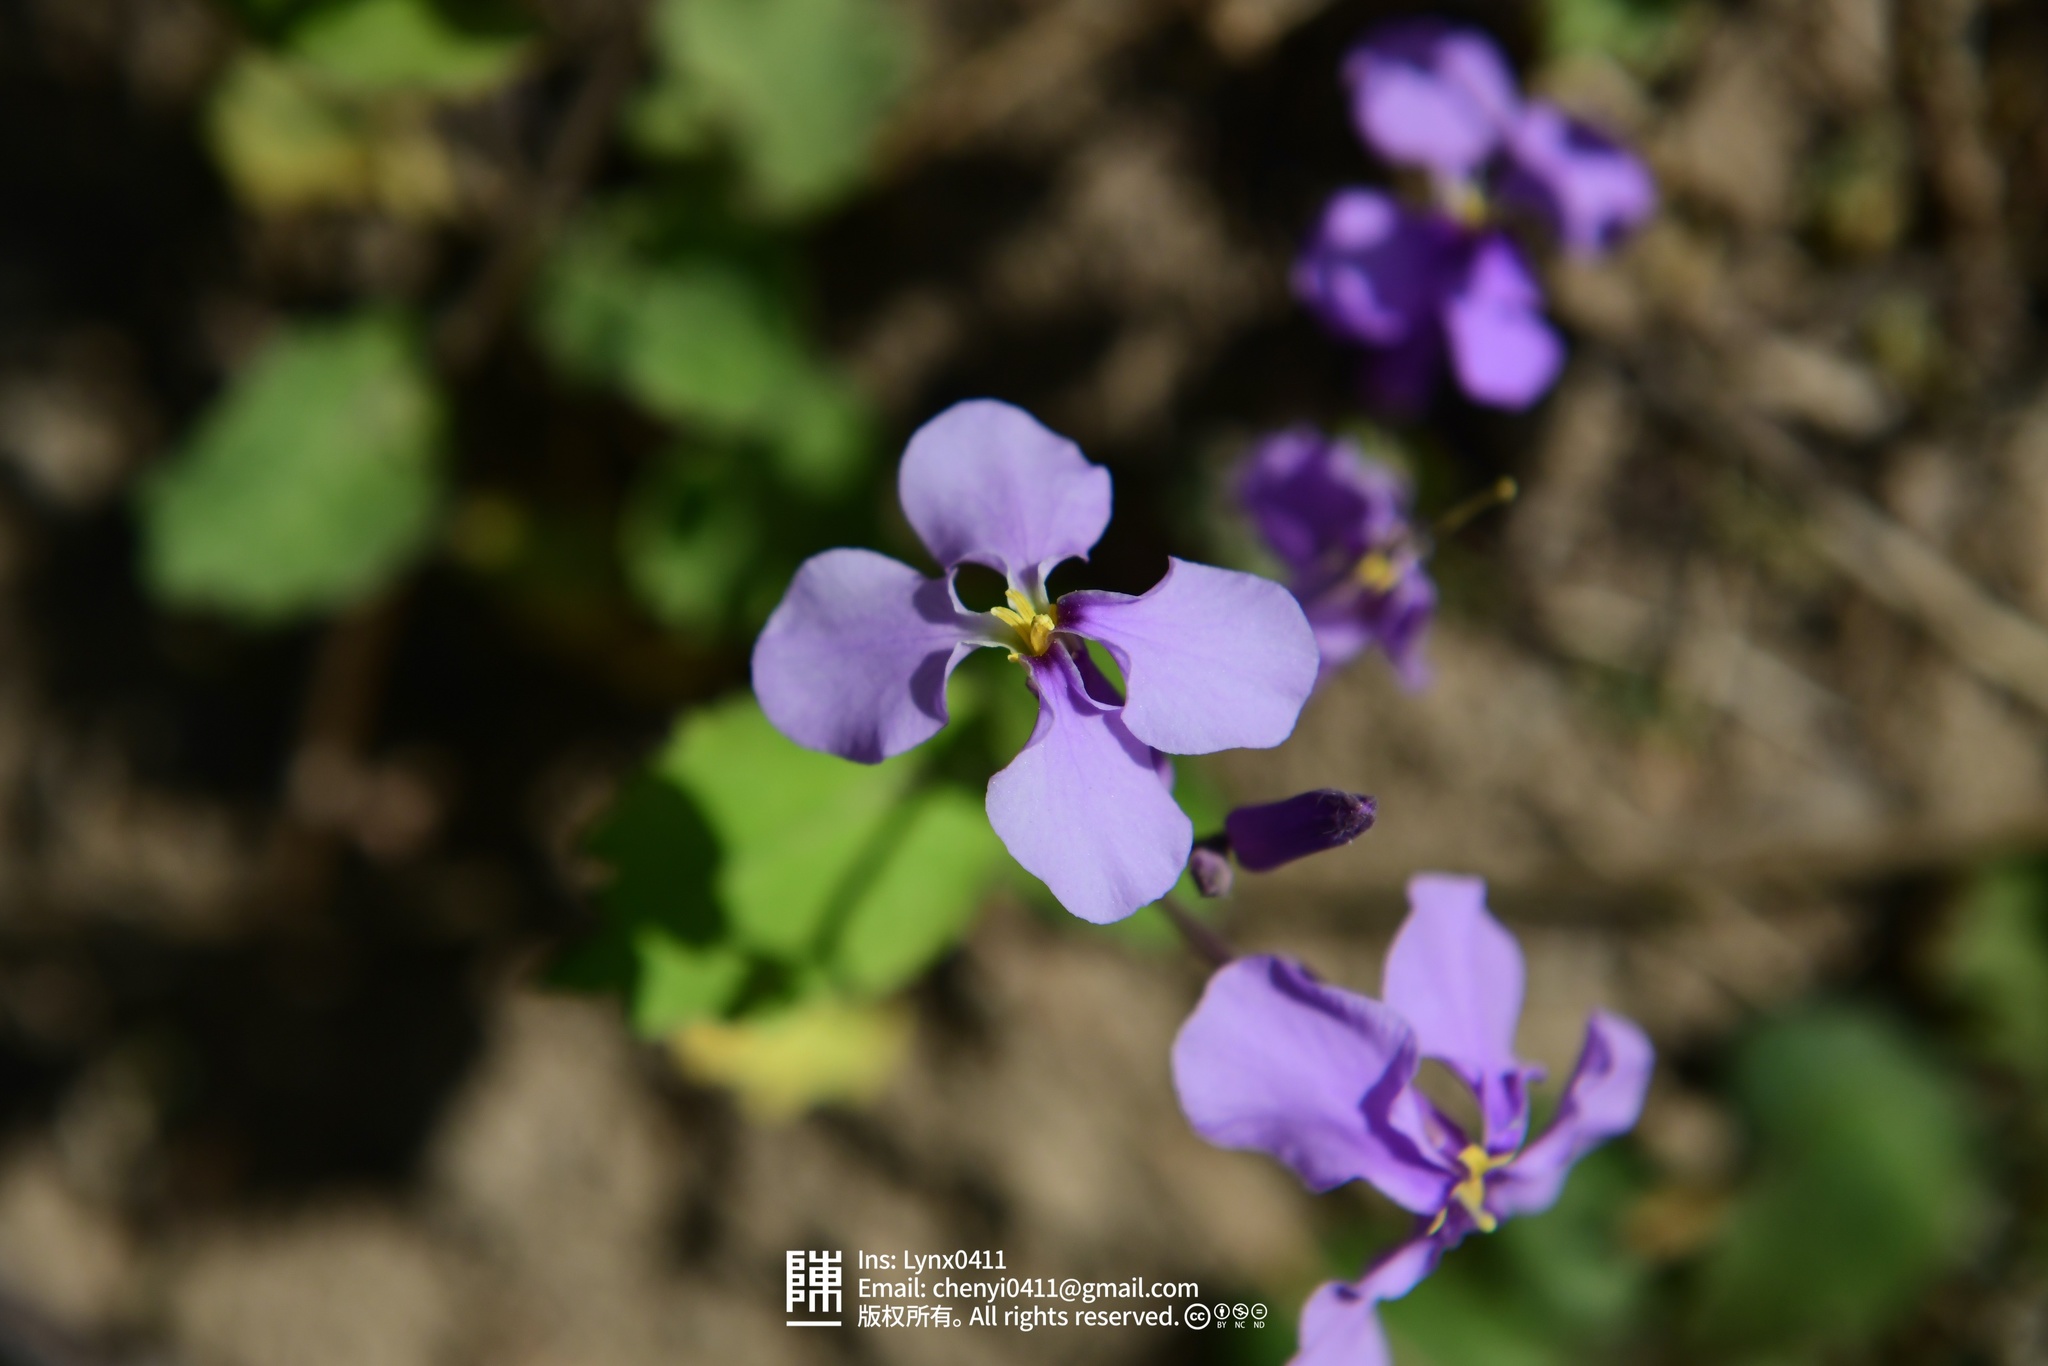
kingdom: Plantae
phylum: Tracheophyta
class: Magnoliopsida
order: Brassicales
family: Brassicaceae
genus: Orychophragmus
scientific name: Orychophragmus violaceus
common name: Mustard
